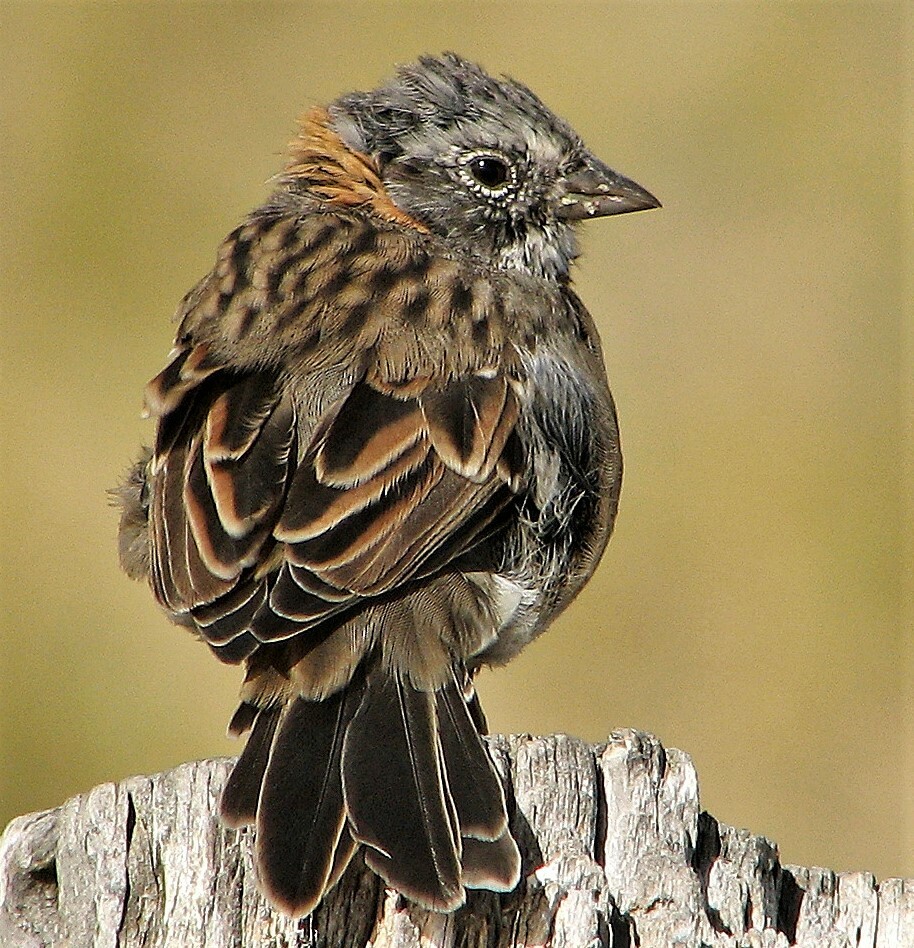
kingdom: Animalia
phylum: Chordata
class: Aves
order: Passeriformes
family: Passerellidae
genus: Zonotrichia
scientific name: Zonotrichia capensis
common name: Rufous-collared sparrow
